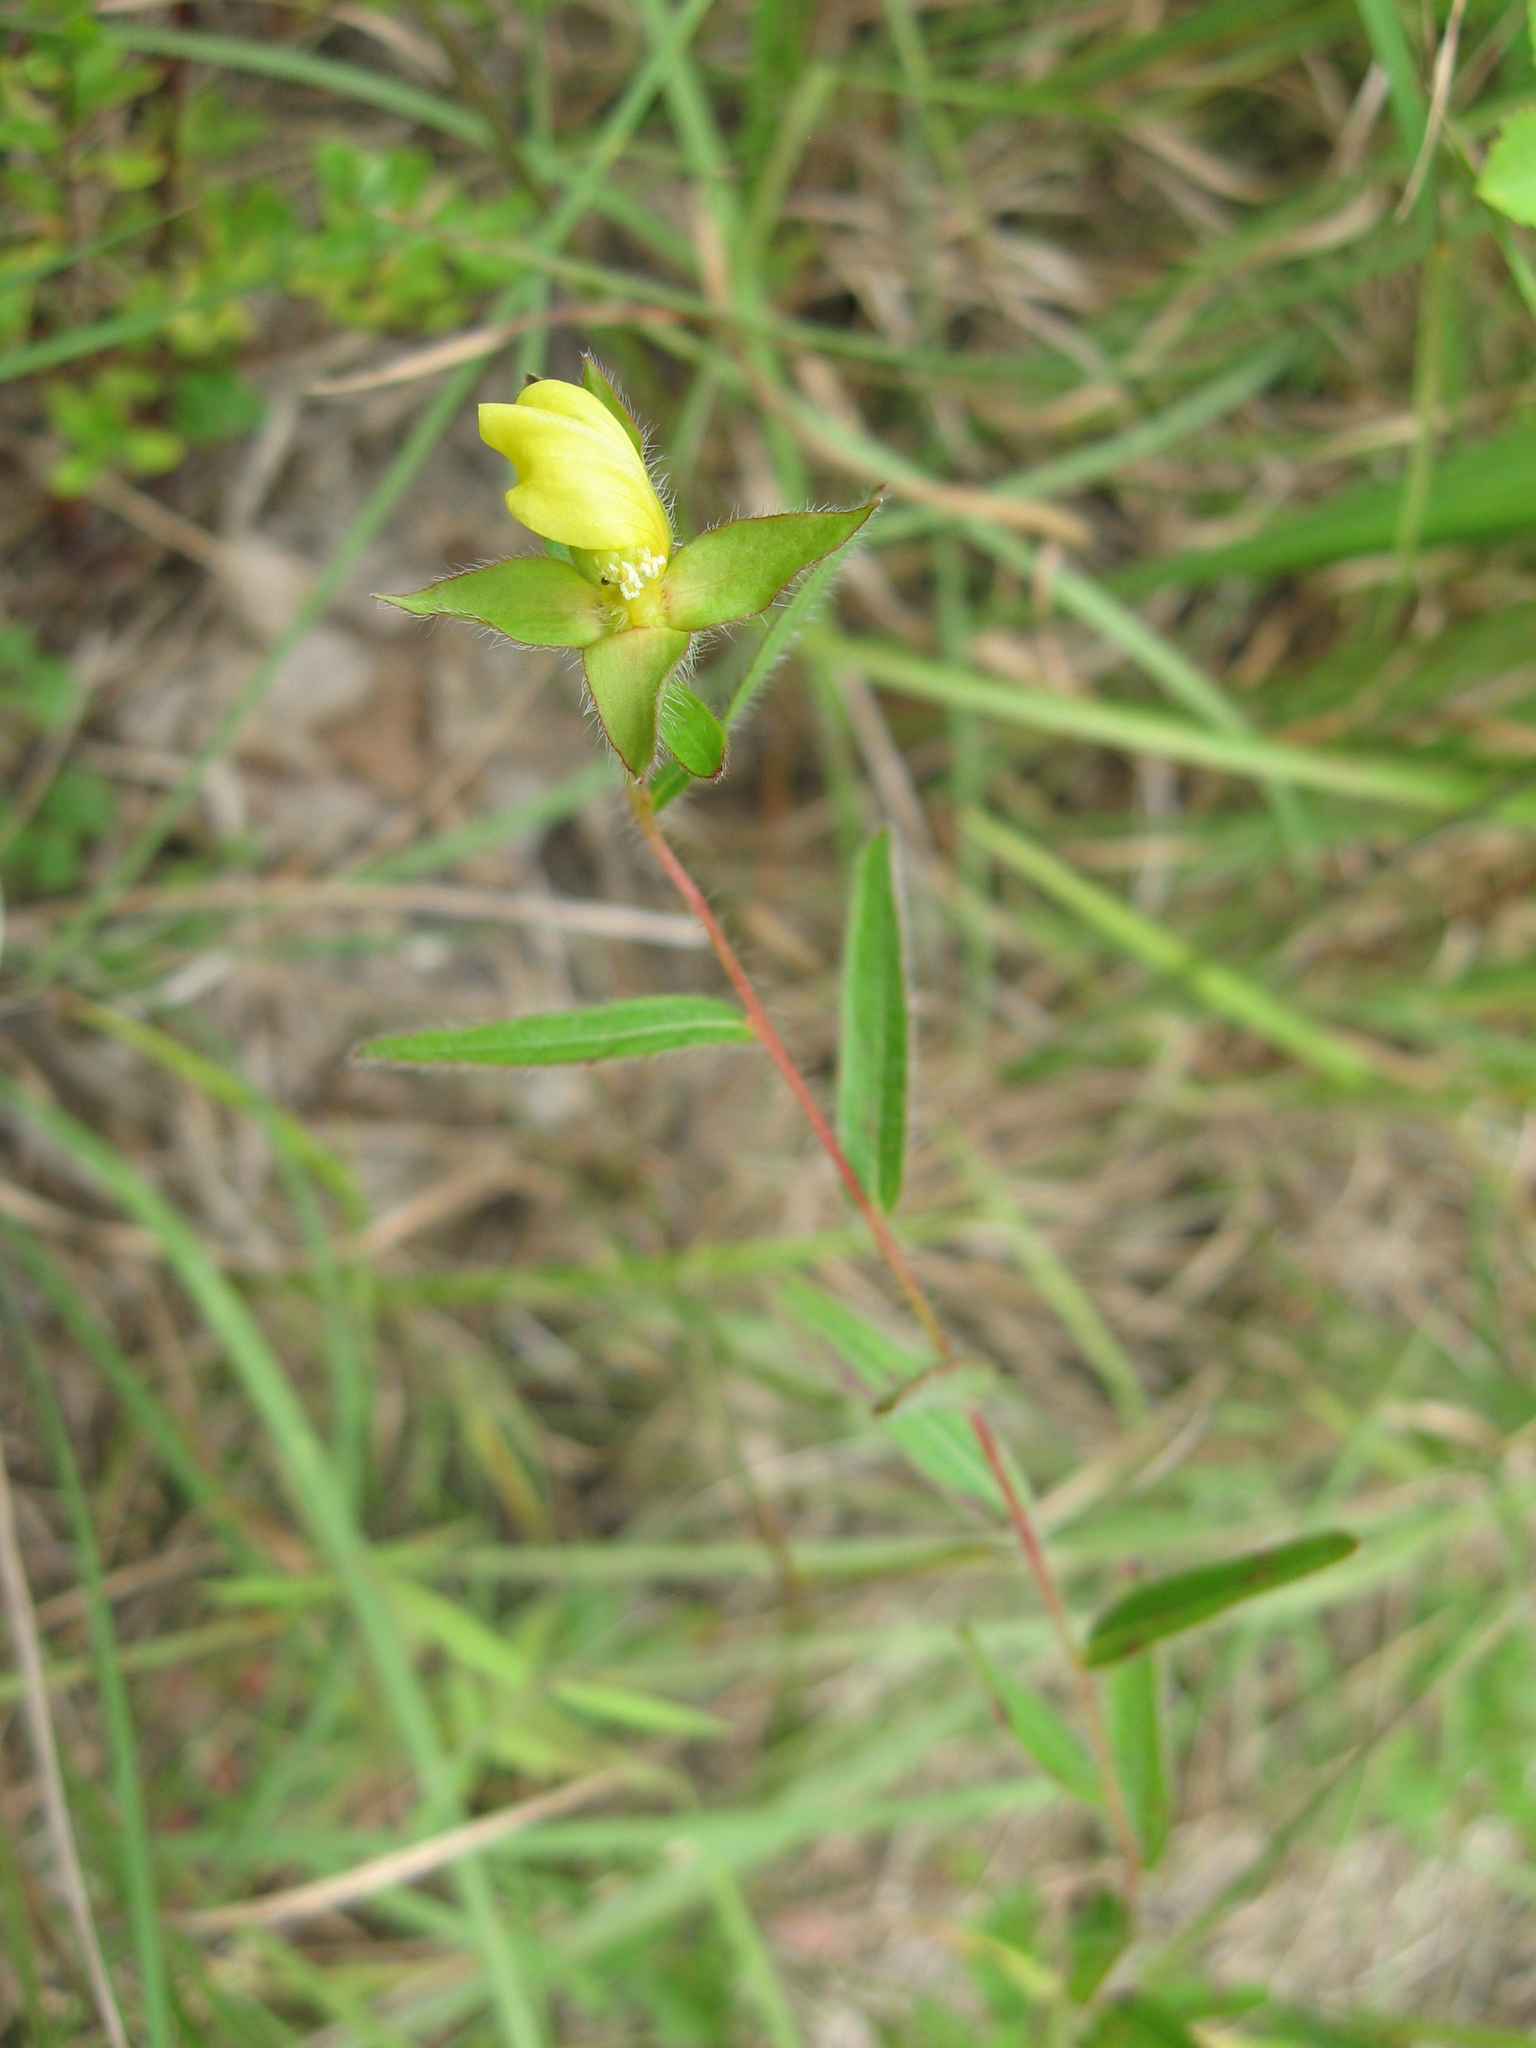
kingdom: Plantae
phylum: Tracheophyta
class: Magnoliopsida
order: Myrtales
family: Onagraceae
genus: Ludwigia
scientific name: Ludwigia hirtella
